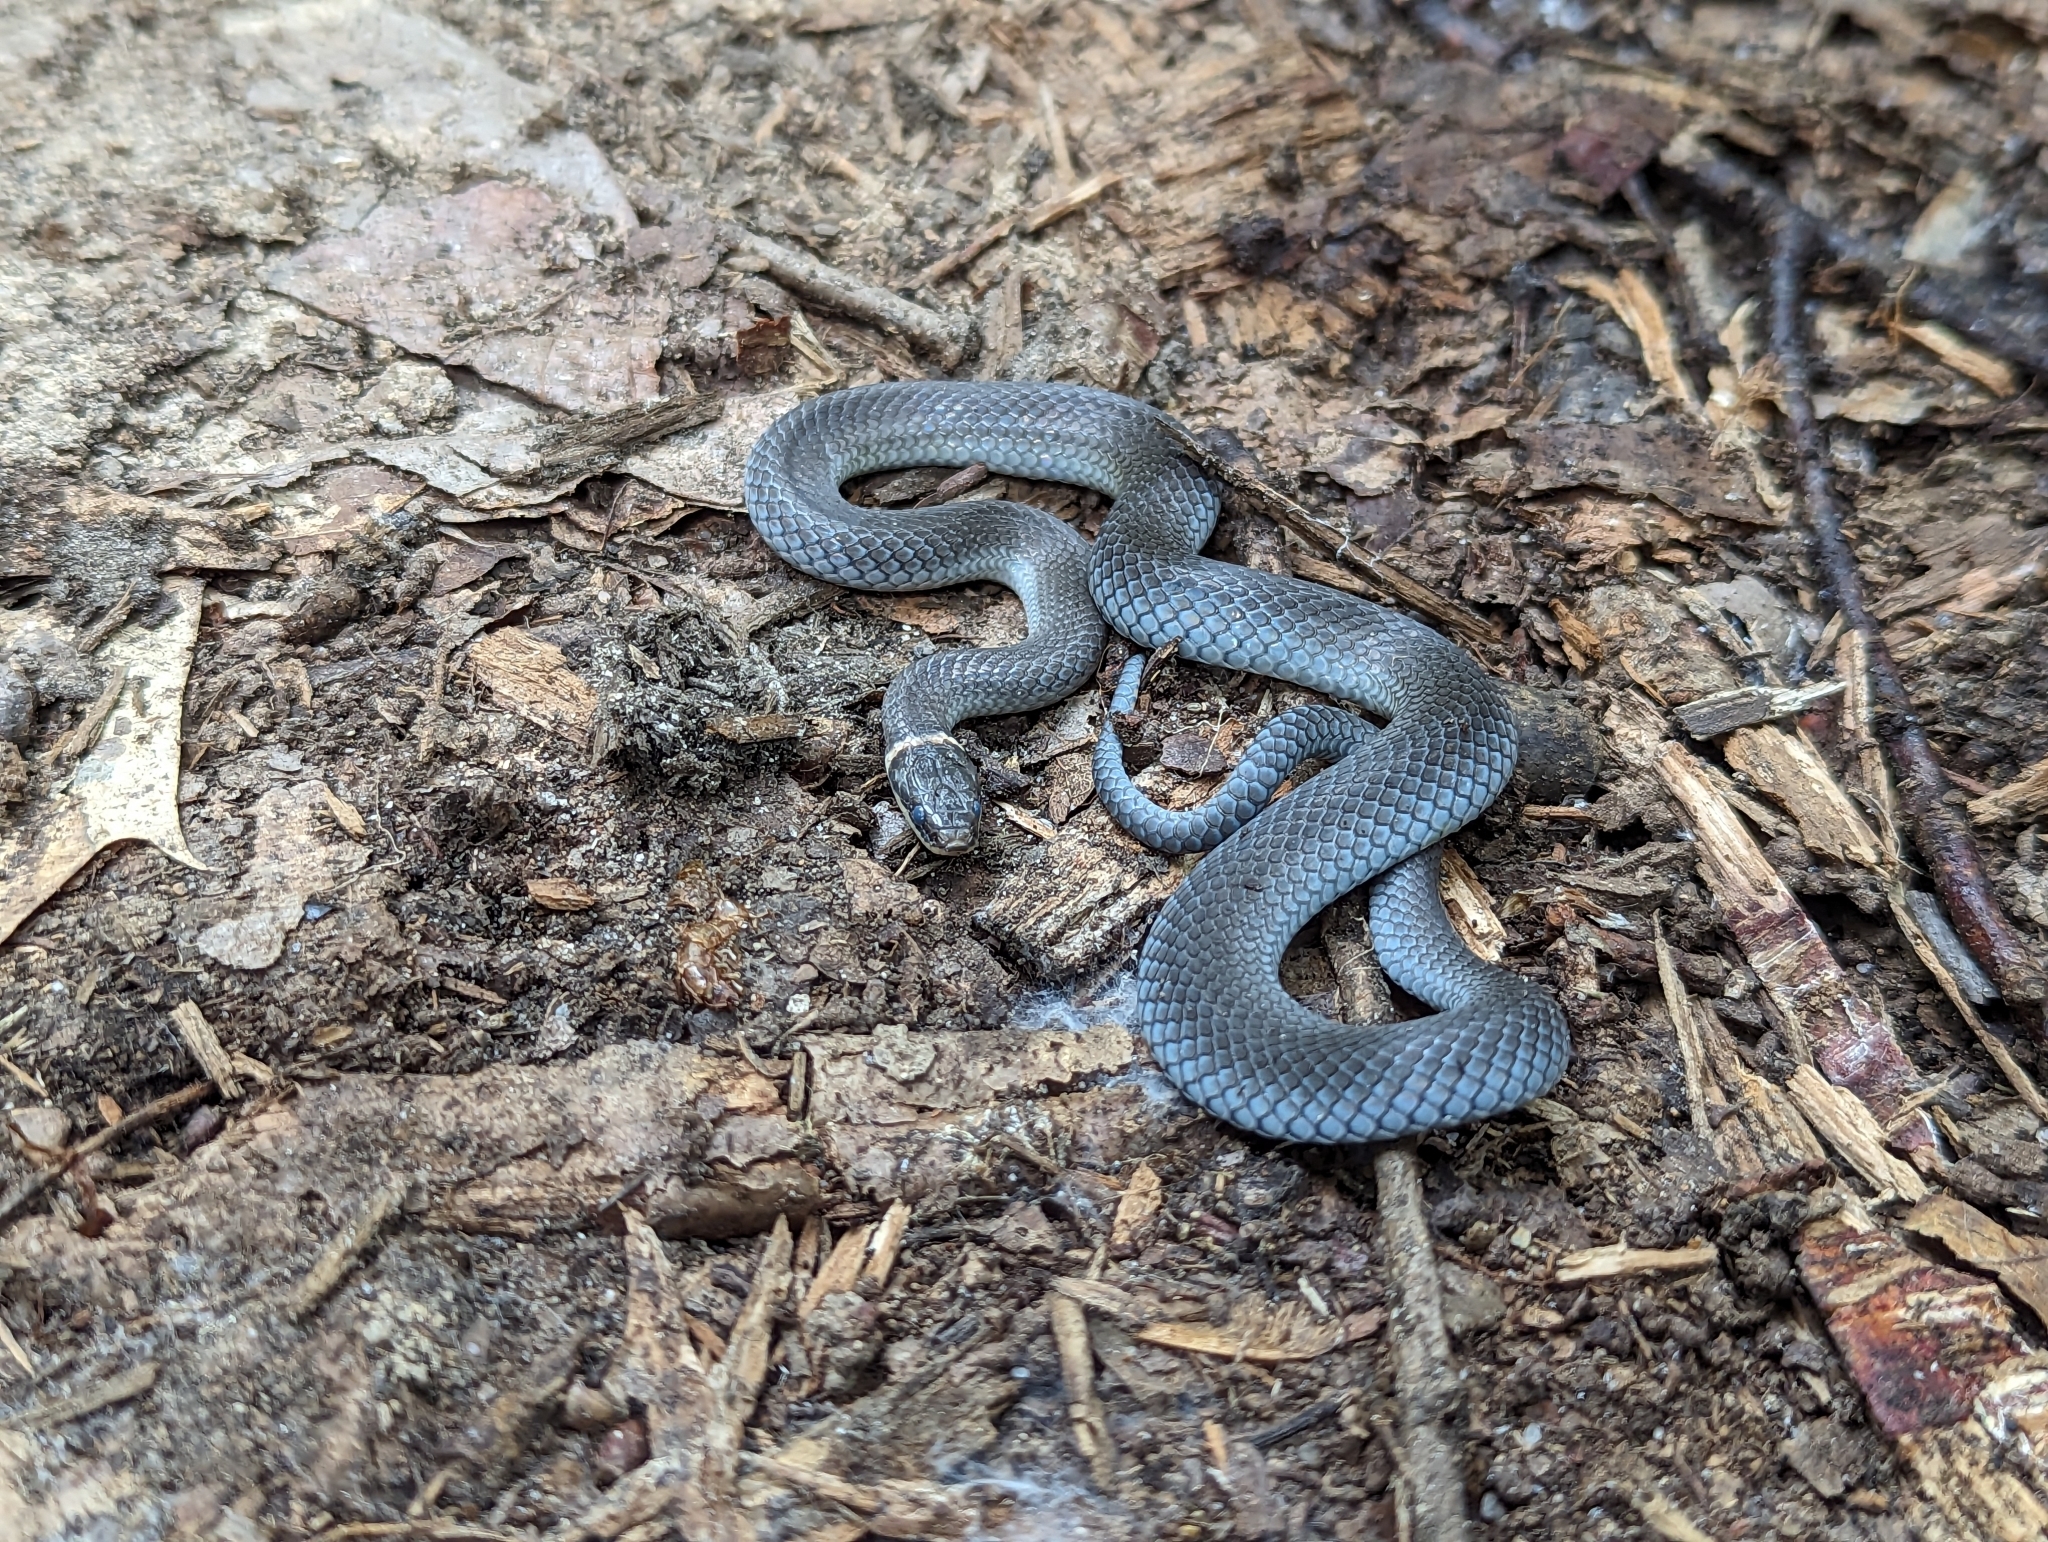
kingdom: Animalia
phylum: Chordata
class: Squamata
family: Colubridae
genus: Diadophis
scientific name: Diadophis punctatus
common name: Ringneck snake
